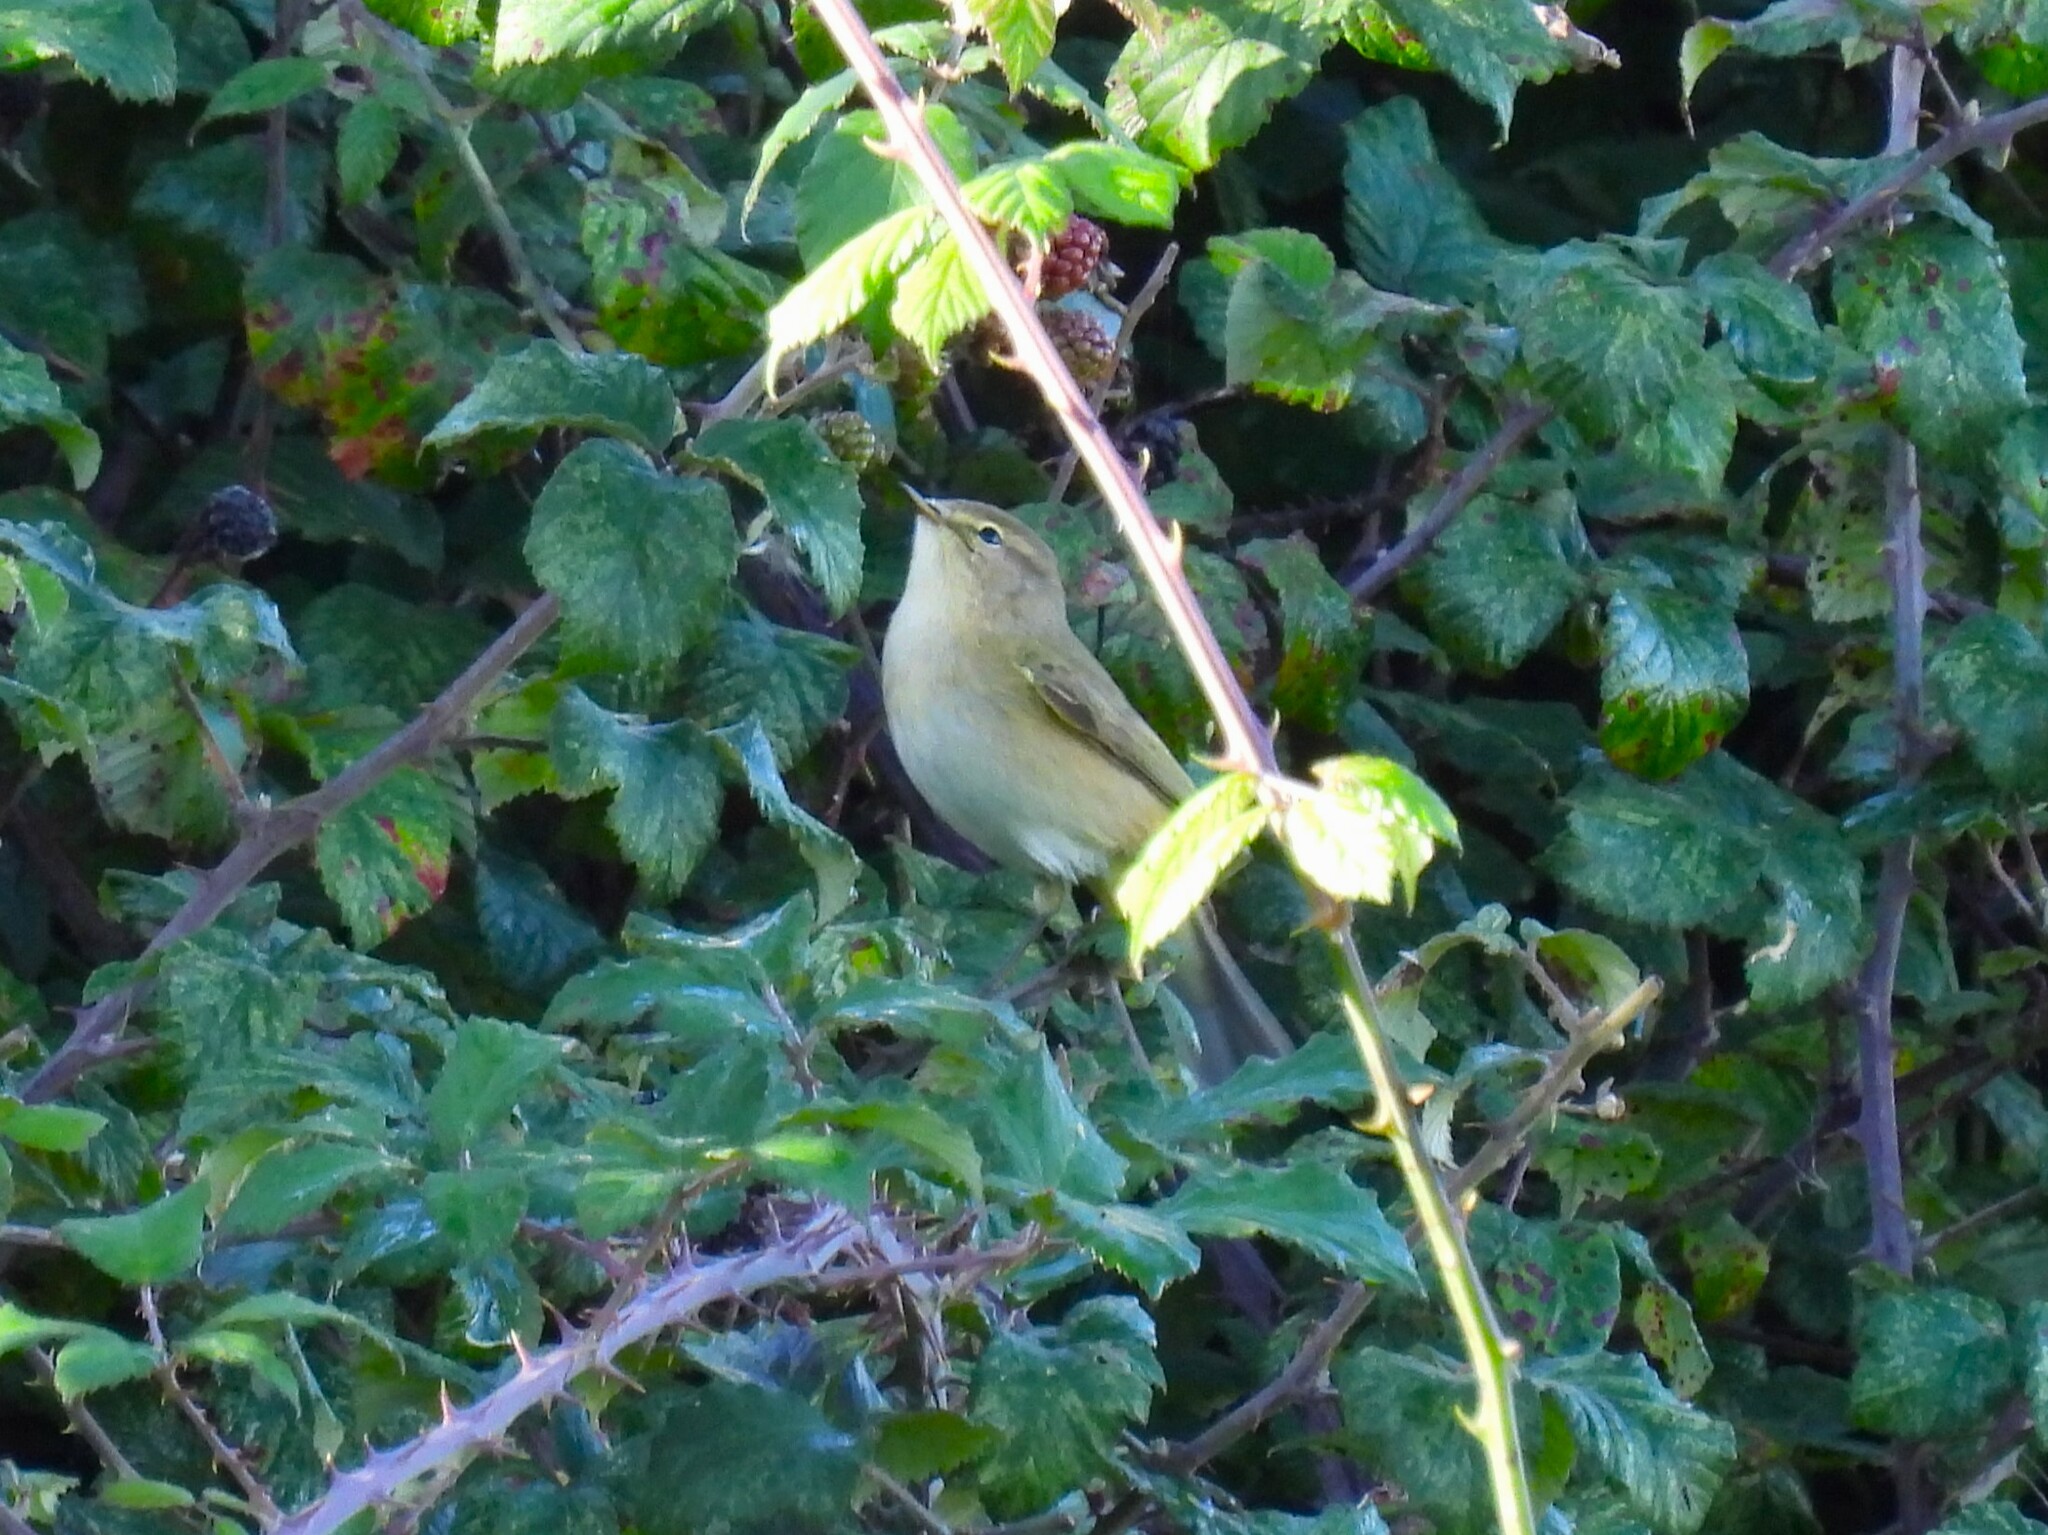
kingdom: Animalia
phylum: Chordata
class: Aves
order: Passeriformes
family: Phylloscopidae
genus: Phylloscopus
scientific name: Phylloscopus collybita
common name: Common chiffchaff
